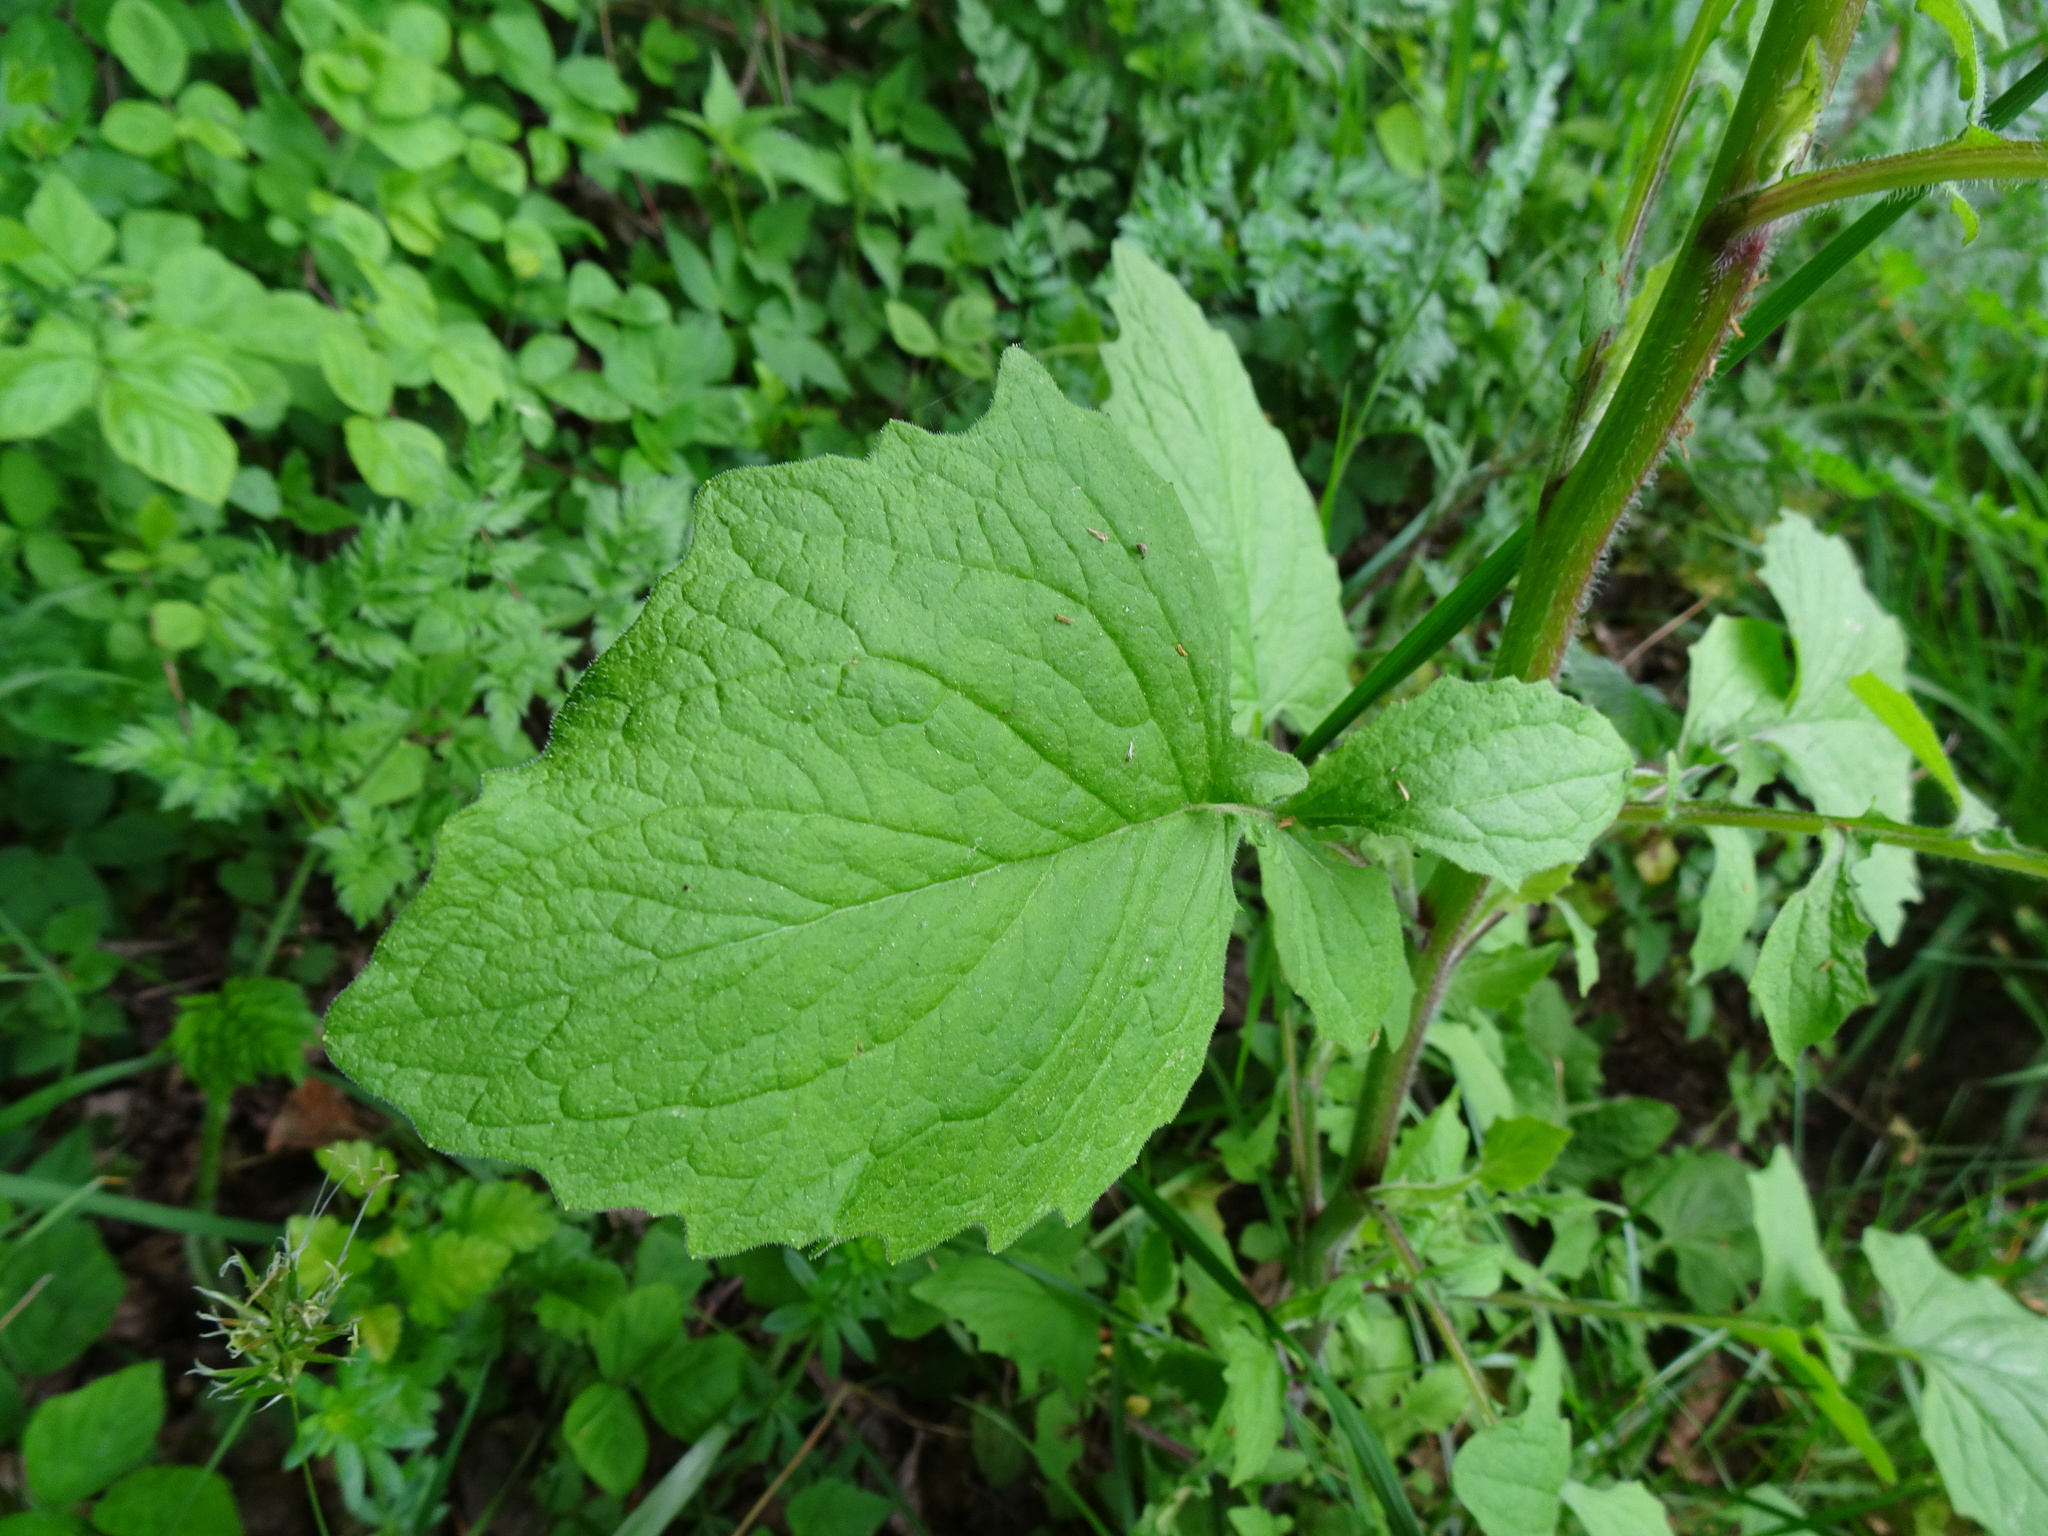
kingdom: Plantae
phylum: Tracheophyta
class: Magnoliopsida
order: Asterales
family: Asteraceae
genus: Lapsana
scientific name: Lapsana communis
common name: Nipplewort
